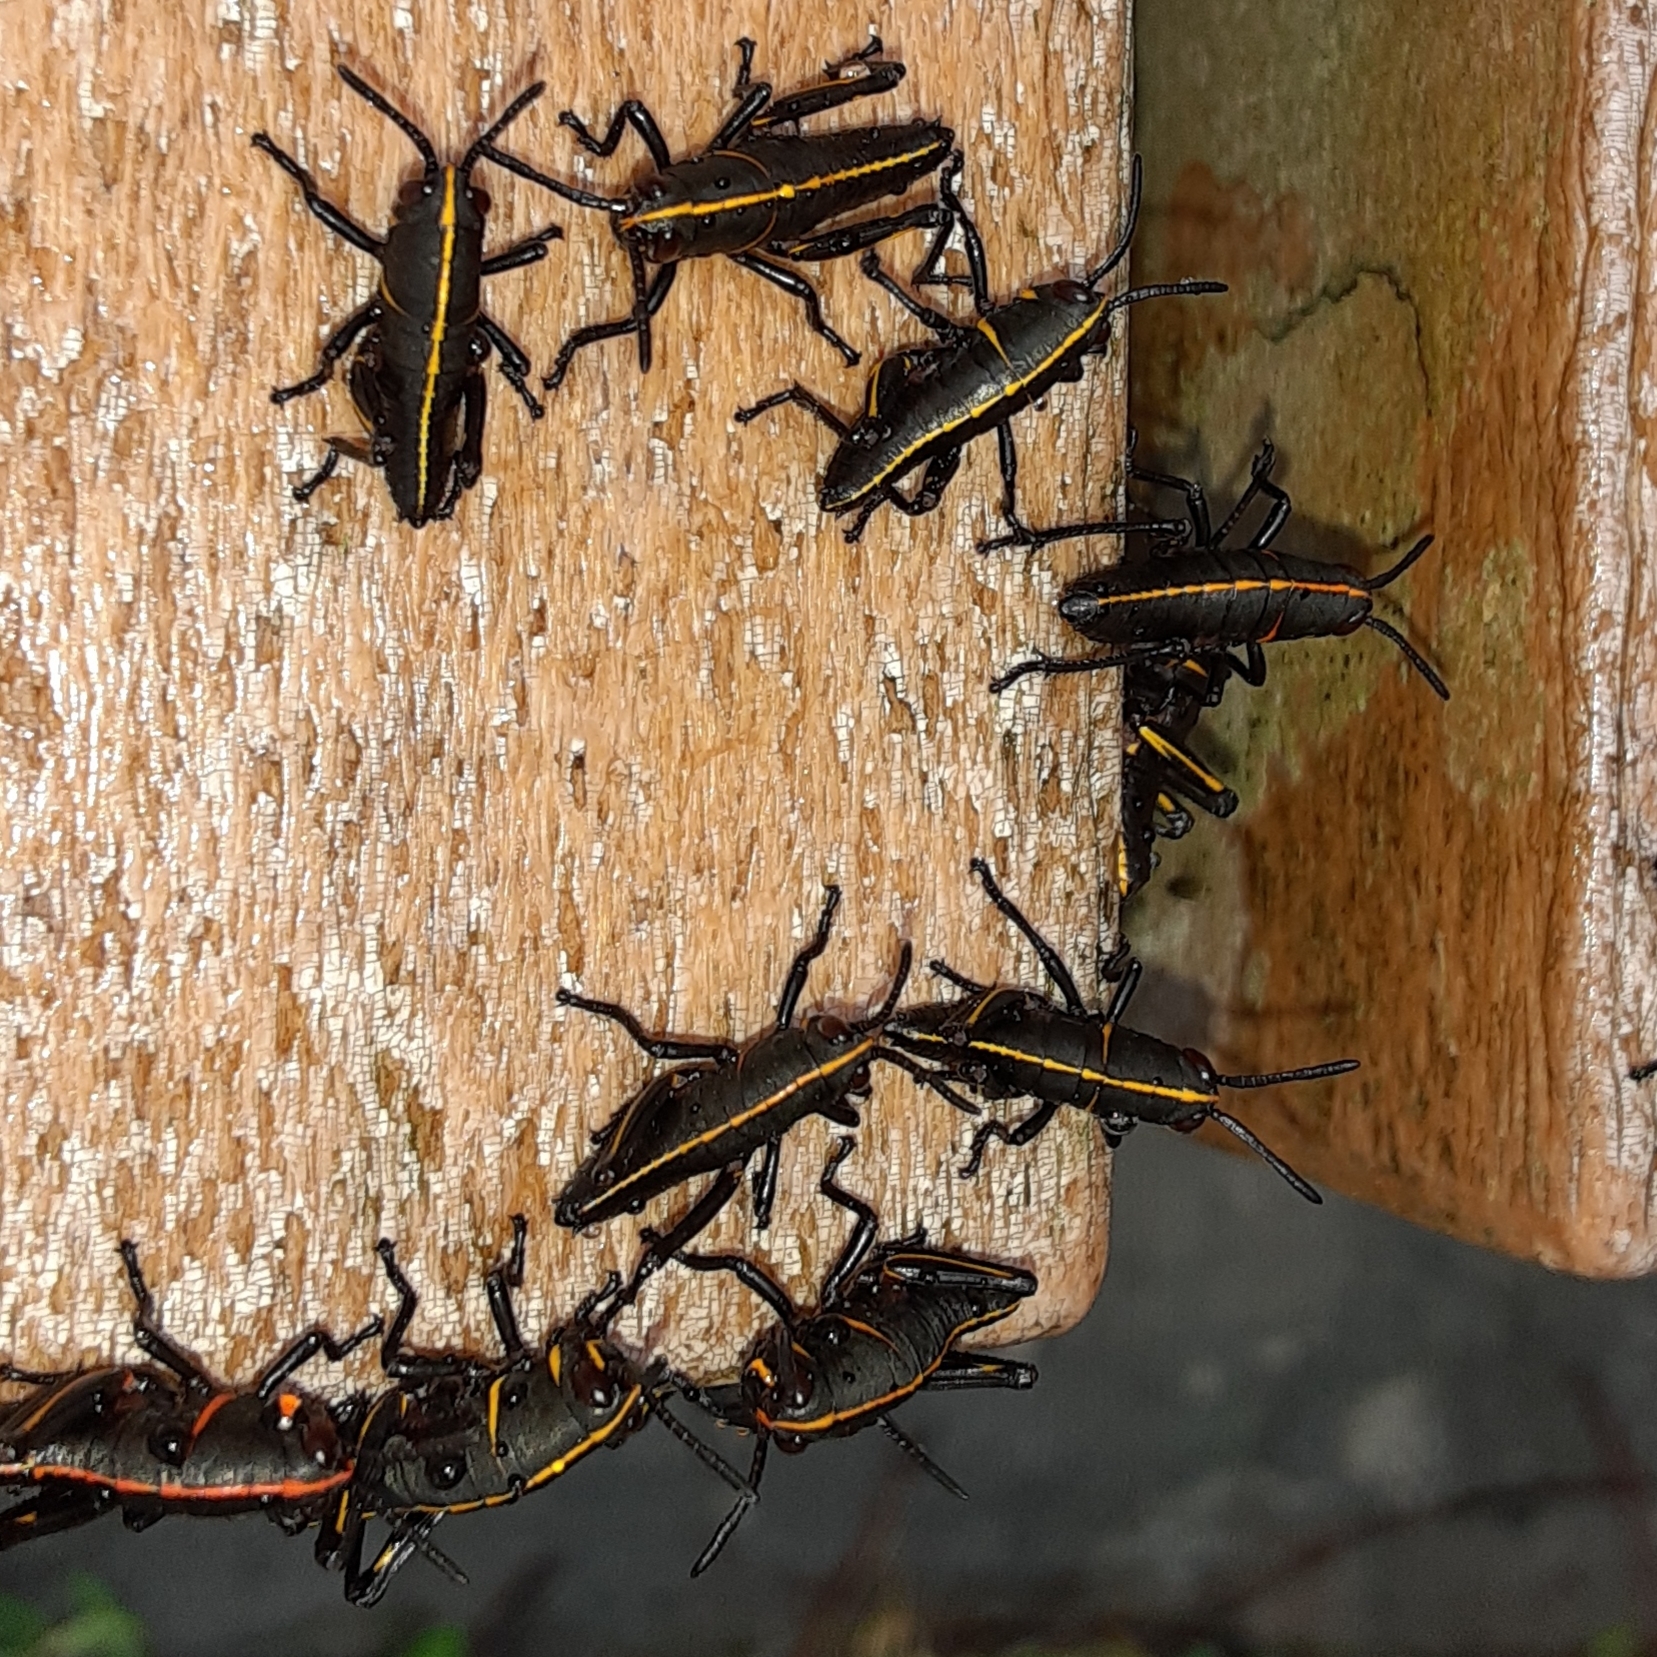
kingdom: Animalia
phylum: Arthropoda
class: Insecta
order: Orthoptera
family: Romaleidae
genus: Romalea
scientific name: Romalea microptera
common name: Eastern lubber grasshopper
